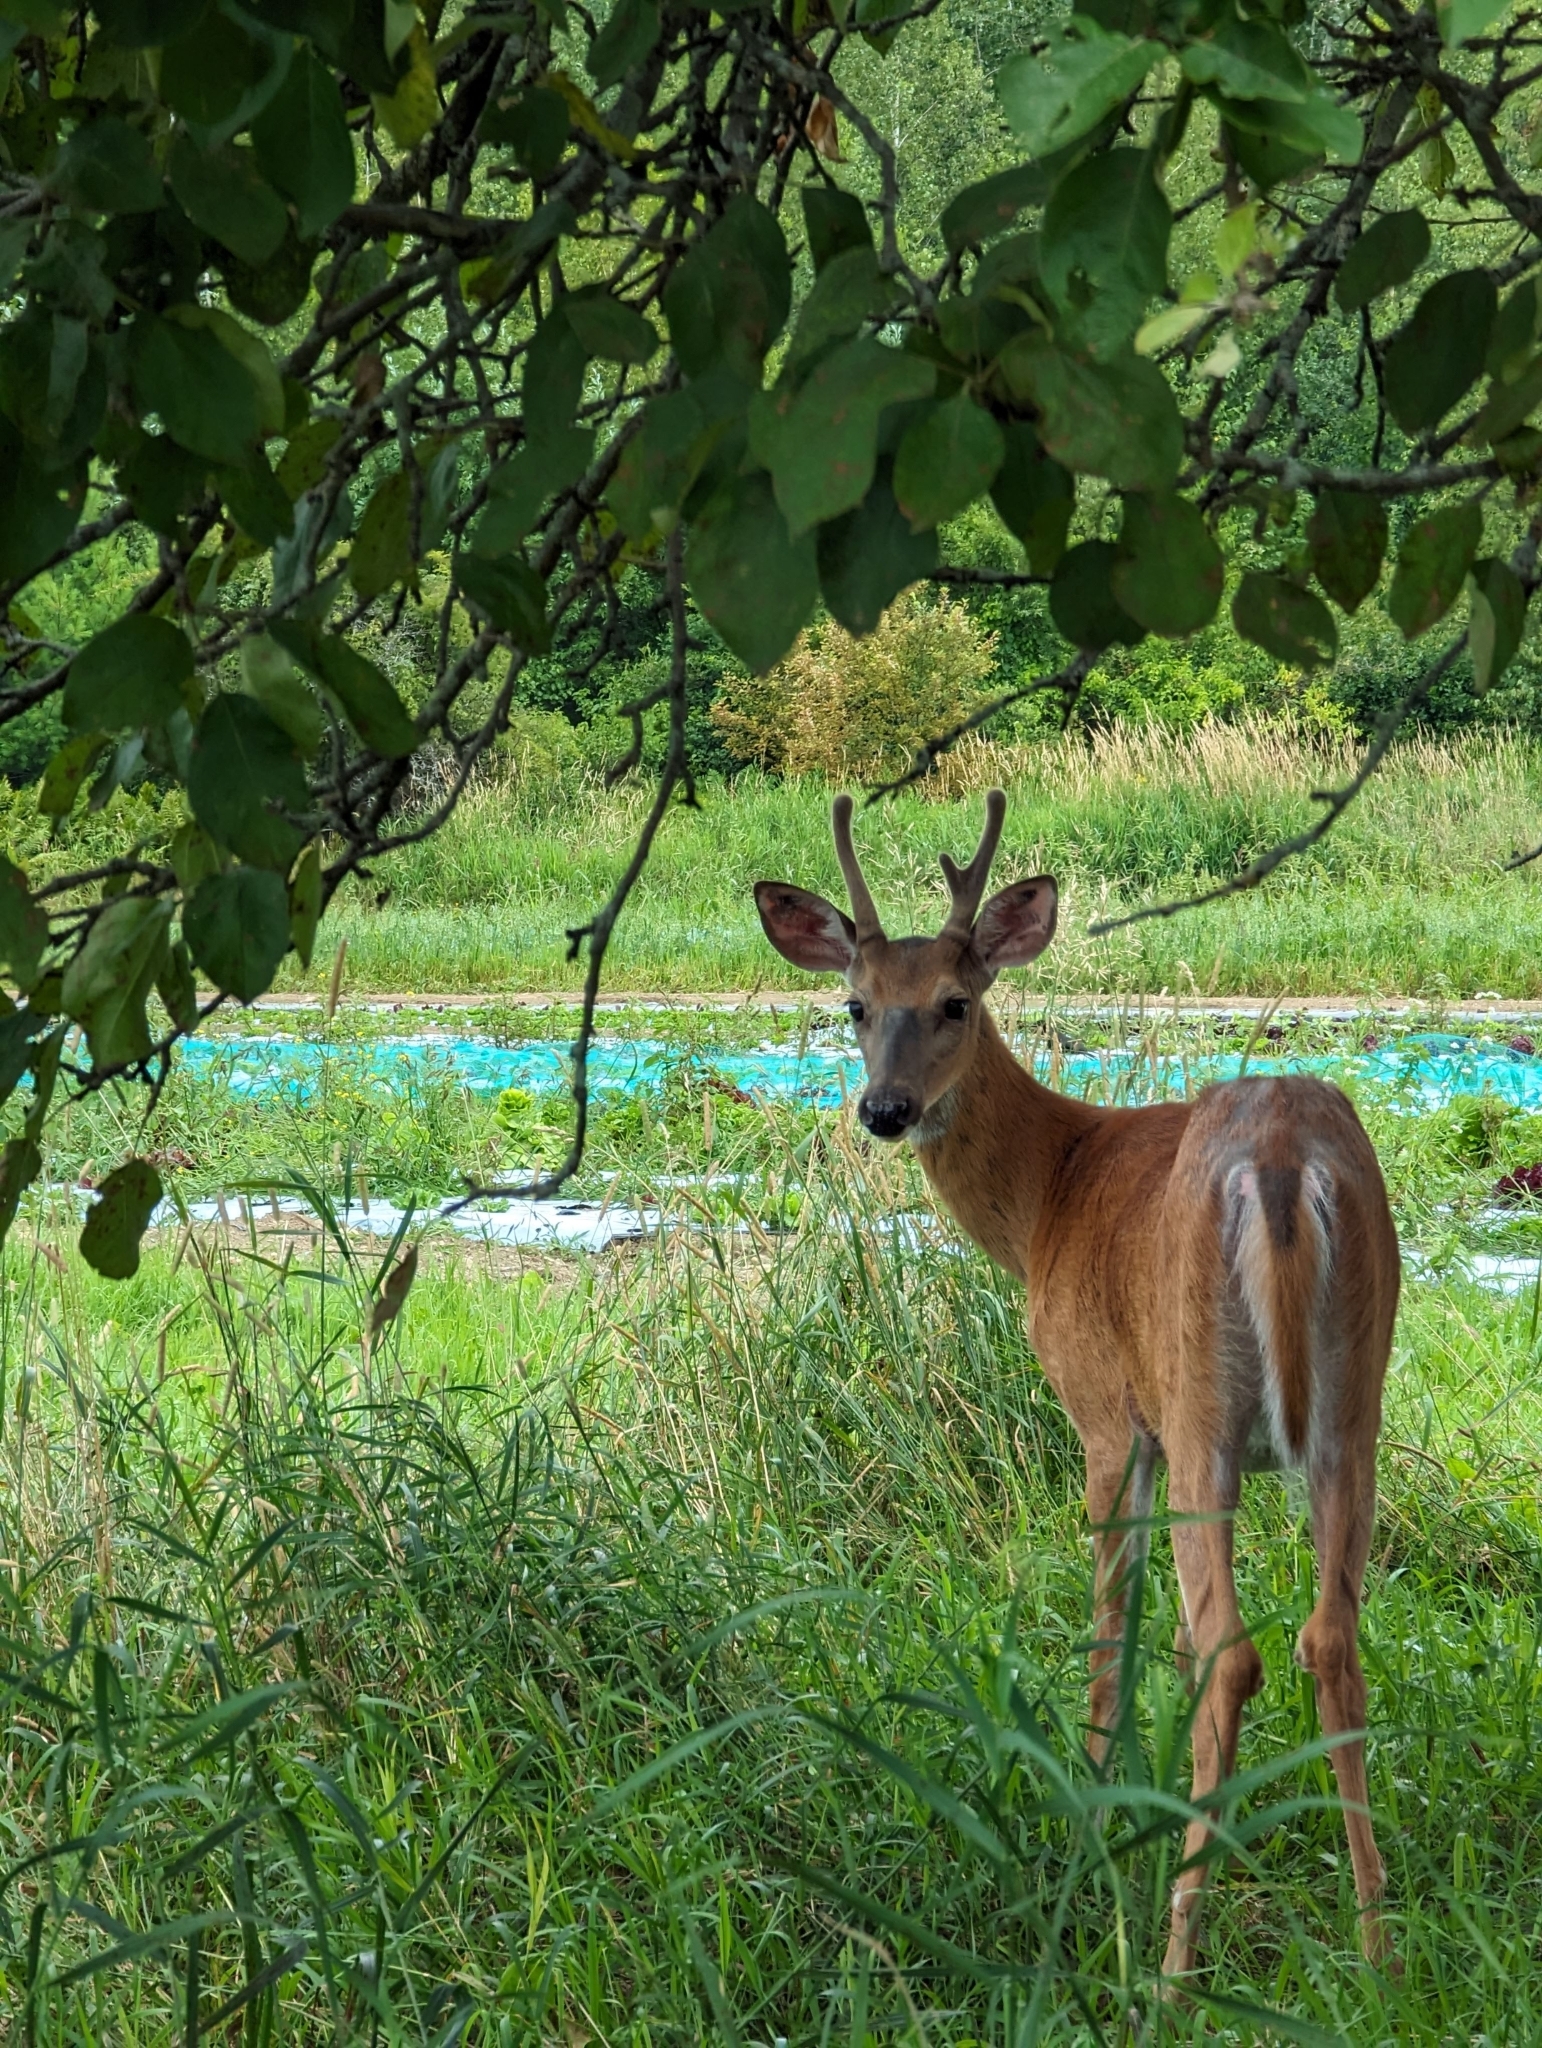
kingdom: Animalia
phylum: Chordata
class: Mammalia
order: Artiodactyla
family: Cervidae
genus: Odocoileus
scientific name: Odocoileus virginianus
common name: White-tailed deer
